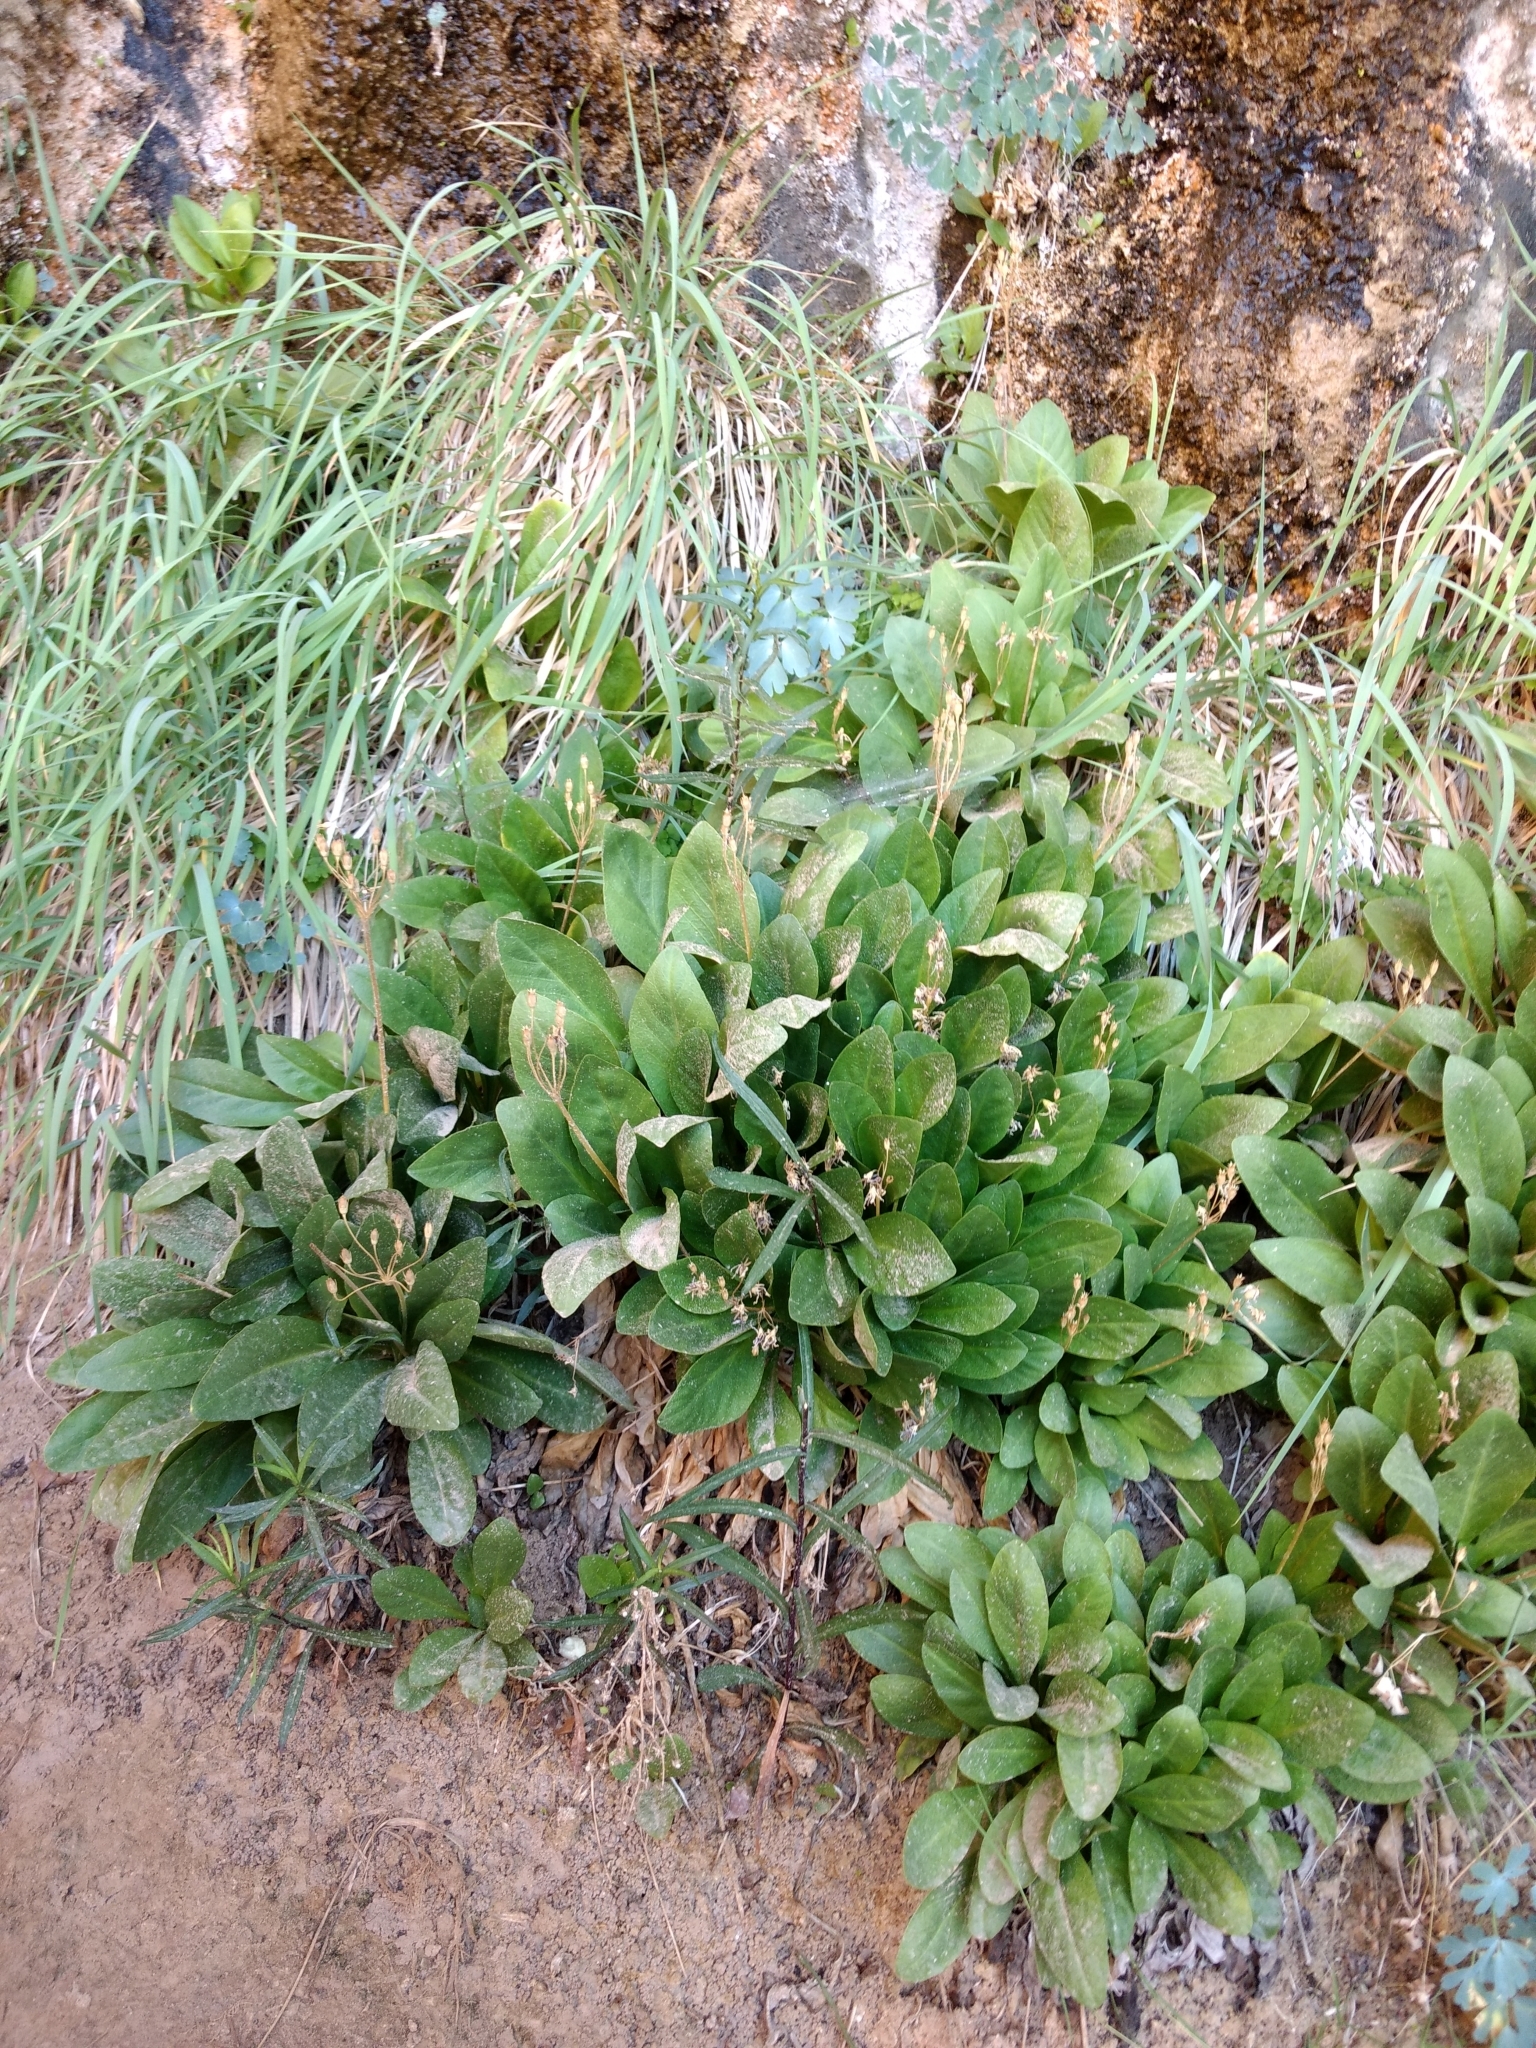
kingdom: Plantae
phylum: Tracheophyta
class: Magnoliopsida
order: Ericales
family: Primulaceae
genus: Dodecatheon
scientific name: Dodecatheon pulchellum
